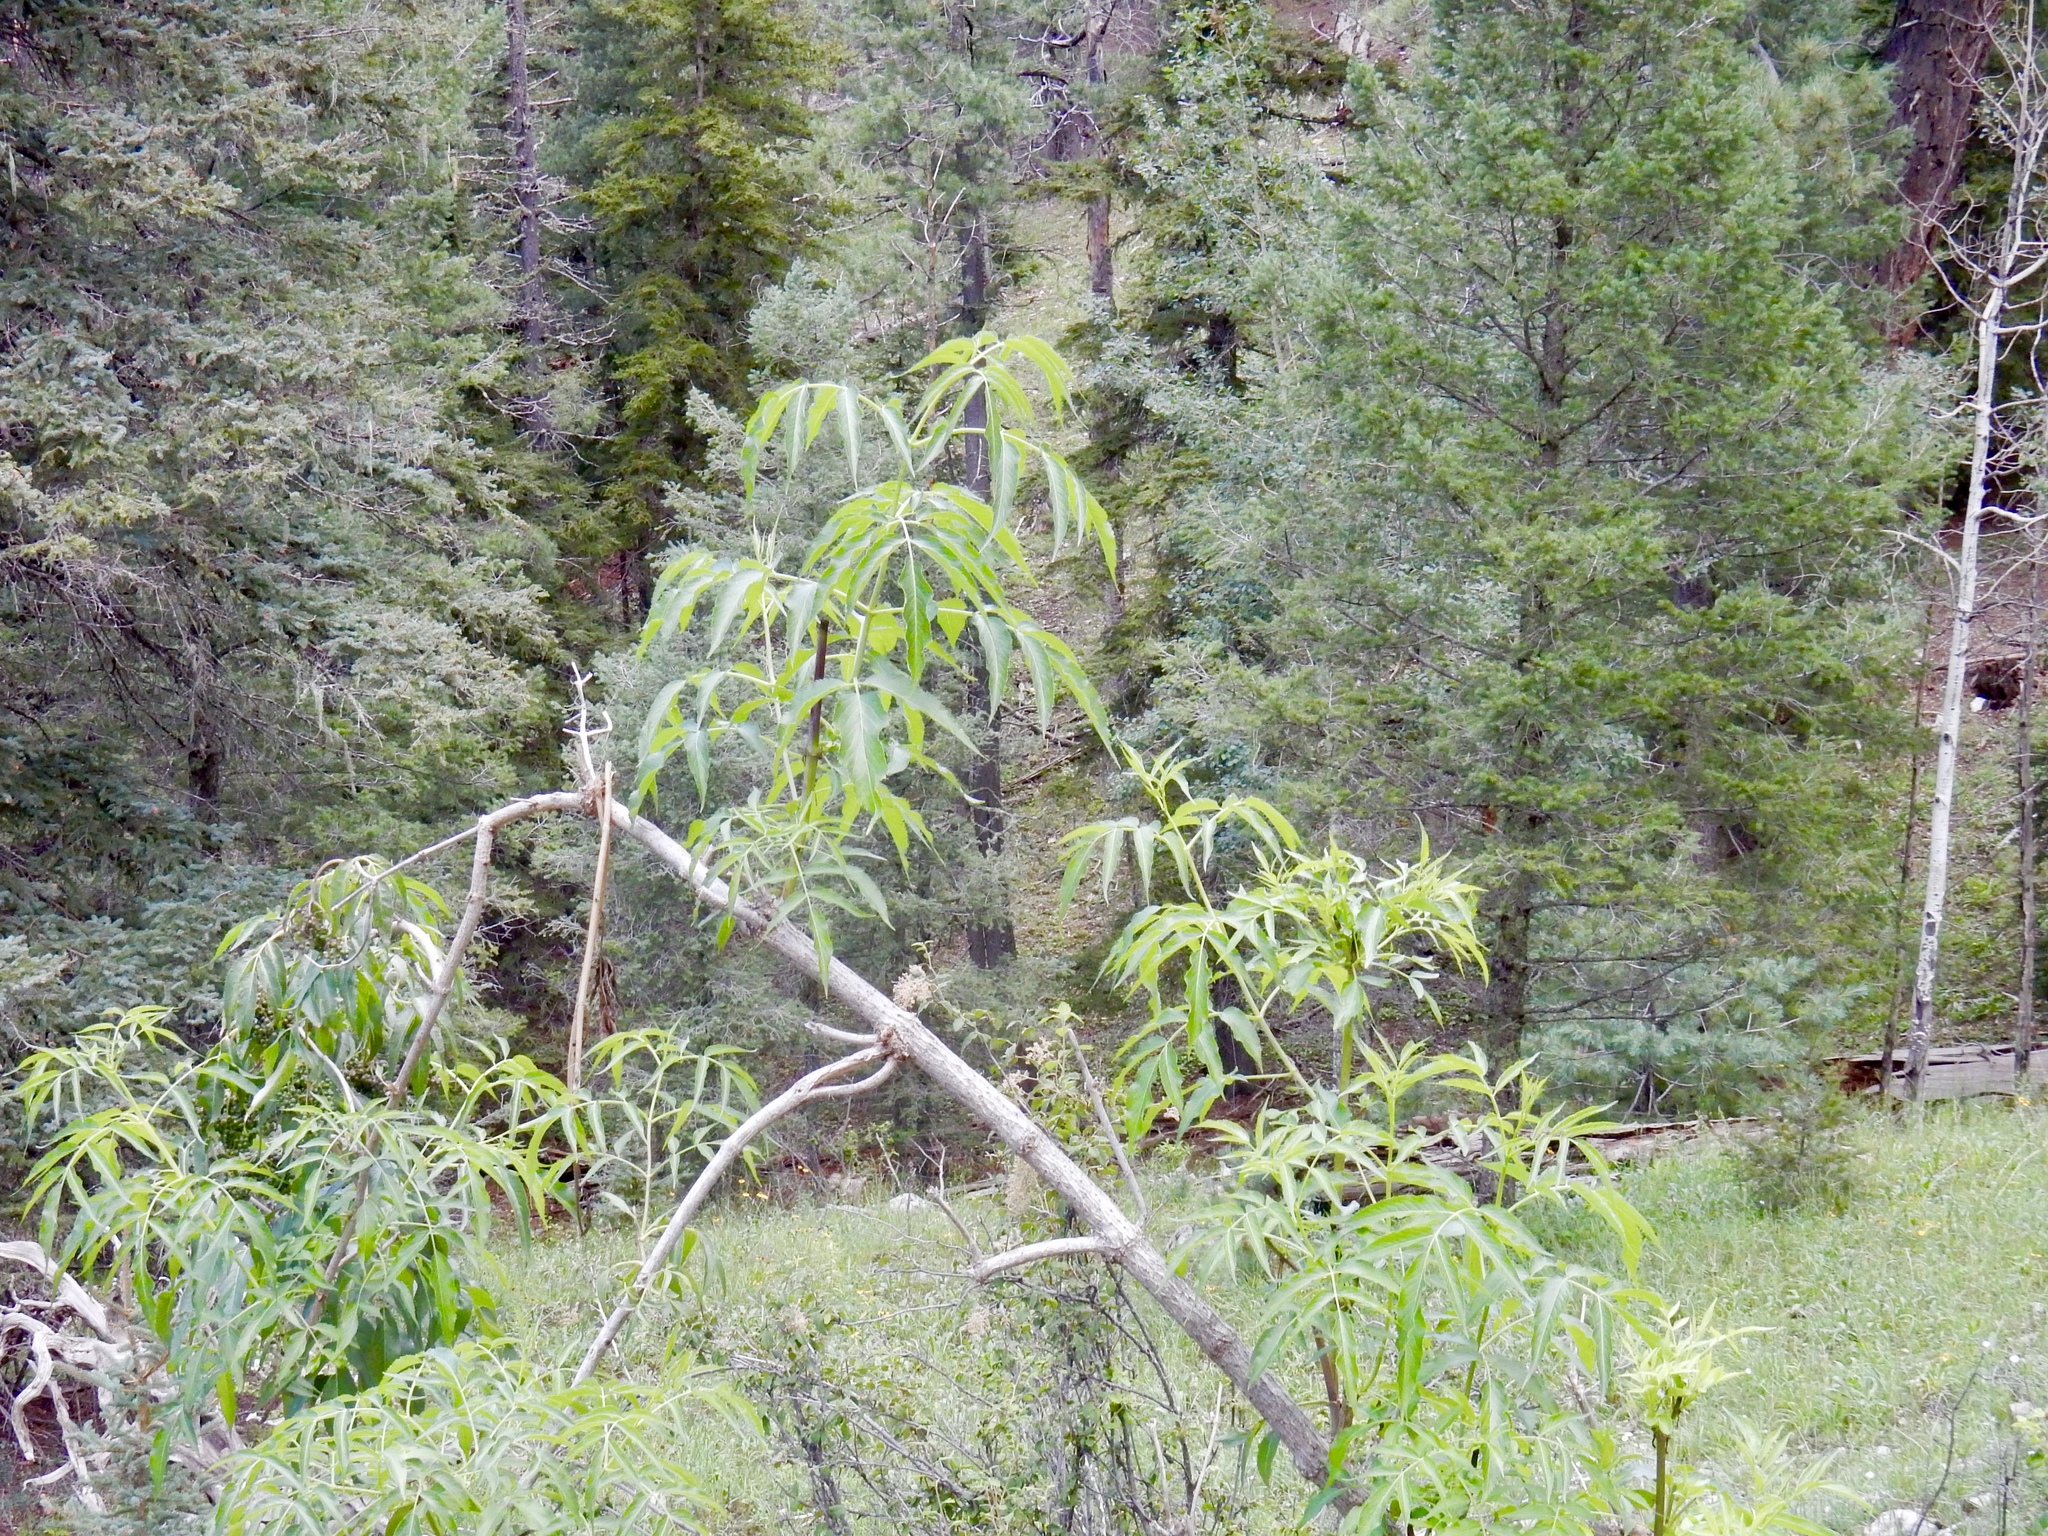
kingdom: Plantae
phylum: Tracheophyta
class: Magnoliopsida
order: Dipsacales
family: Viburnaceae
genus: Sambucus
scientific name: Sambucus cerulea
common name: Blue elder
